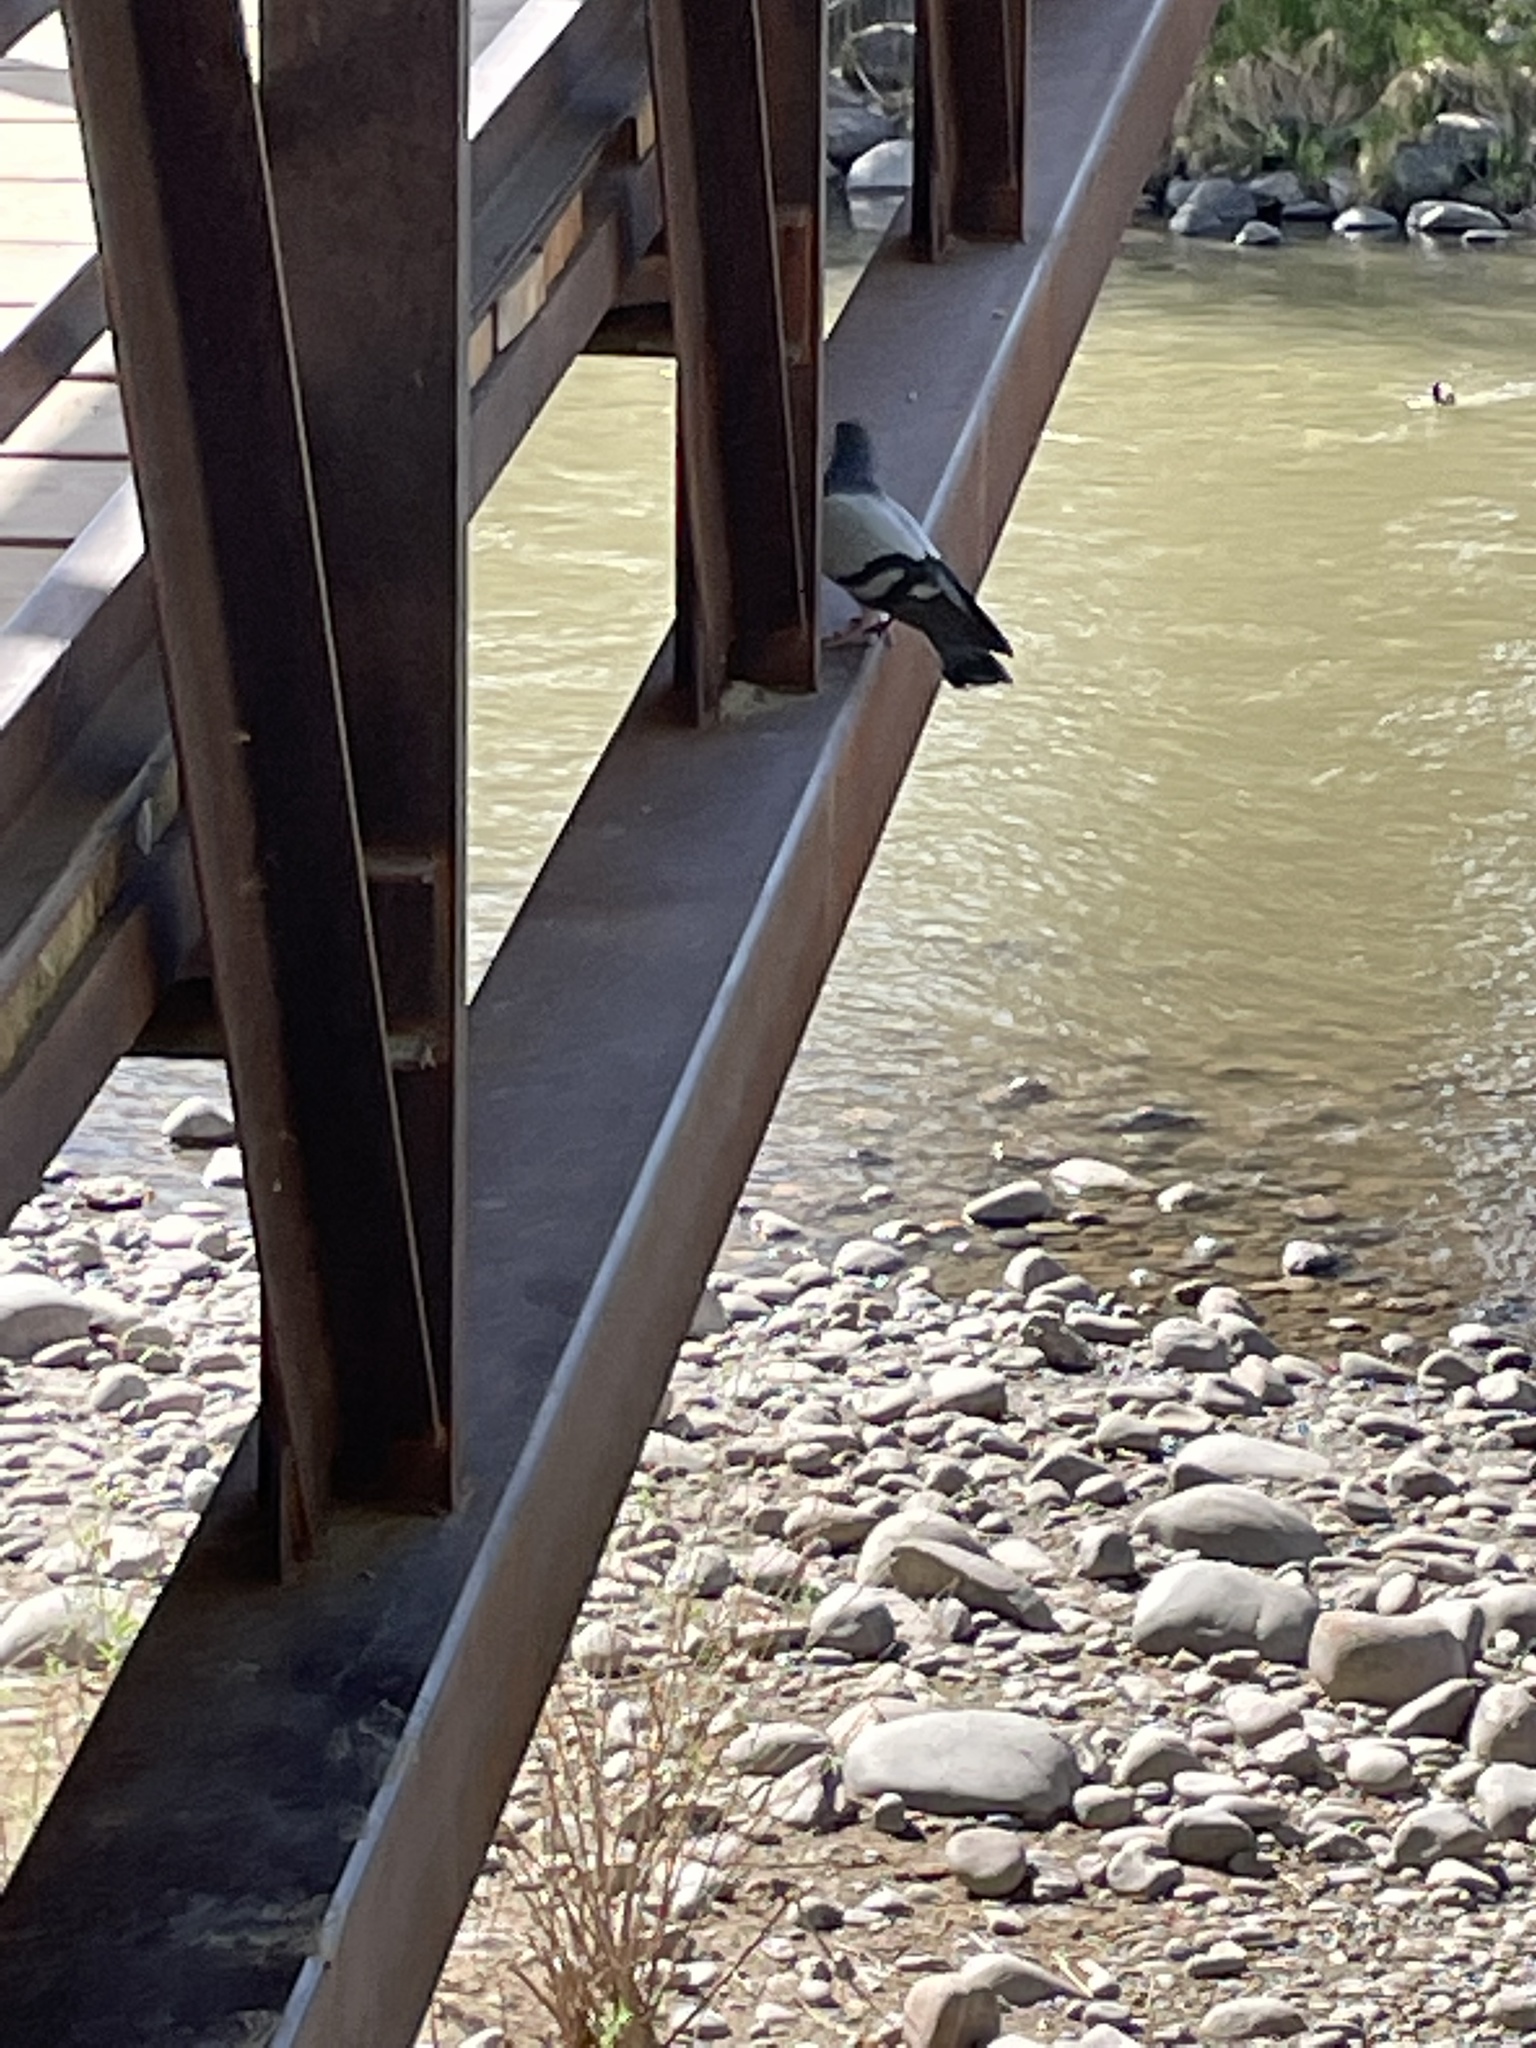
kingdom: Animalia
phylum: Chordata
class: Aves
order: Columbiformes
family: Columbidae
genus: Columba
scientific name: Columba livia
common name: Rock pigeon
